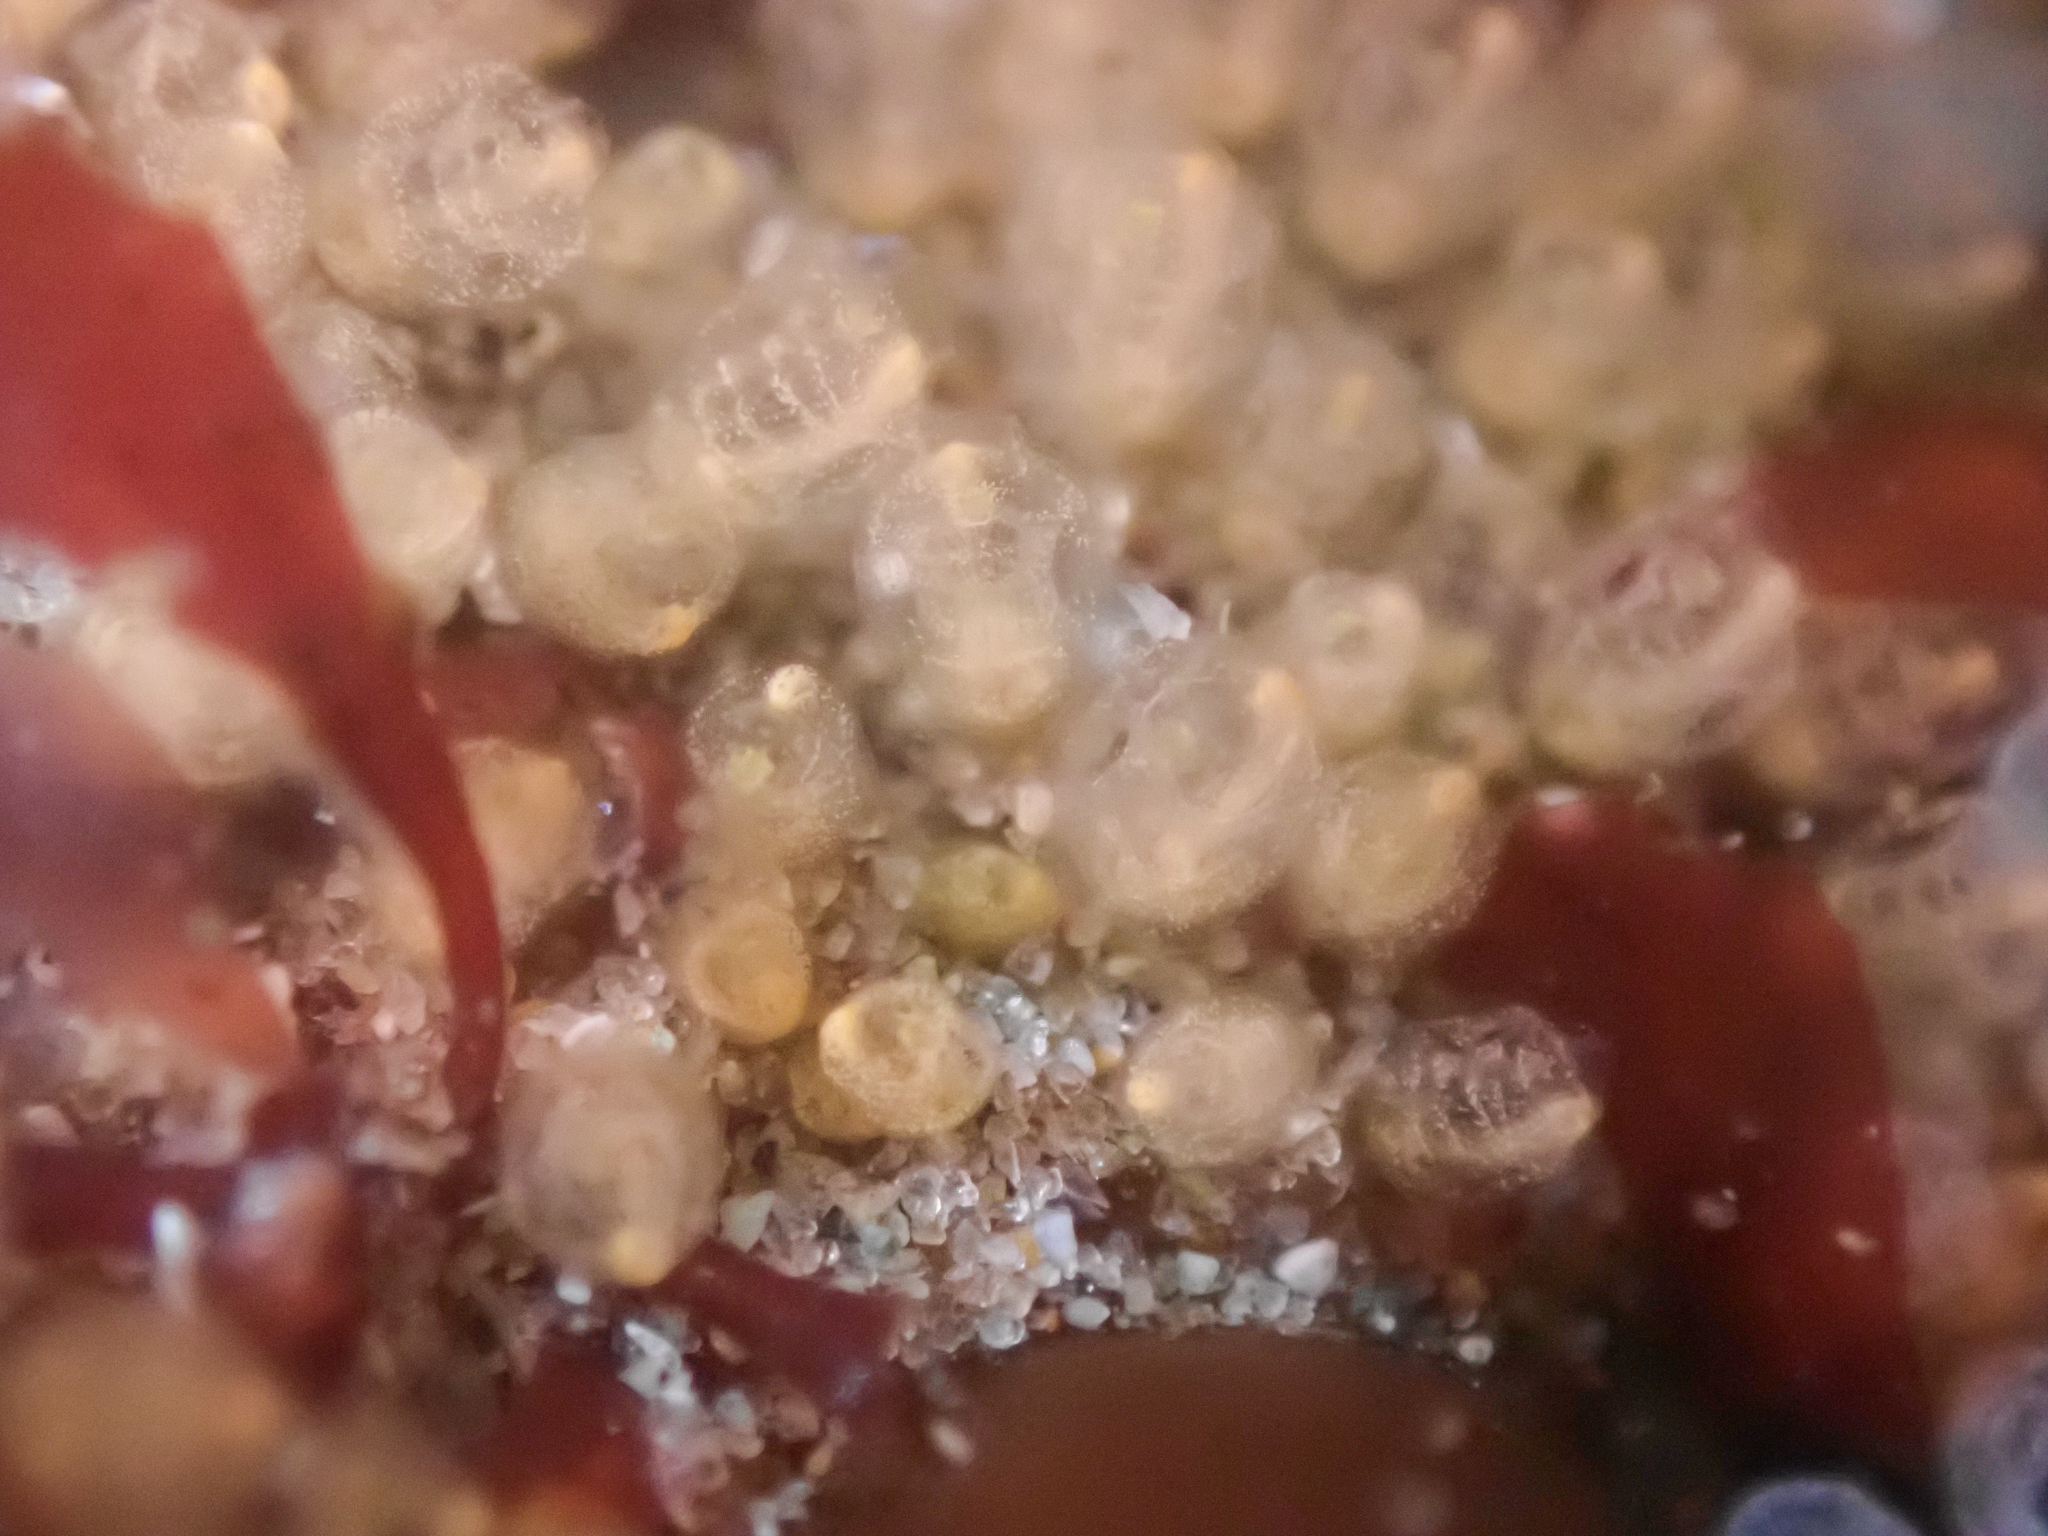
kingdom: Animalia
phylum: Chordata
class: Ascidiacea
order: Aplousobranchia
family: Clavelinidae
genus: Pycnoclavella
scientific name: Pycnoclavella stanleyi
